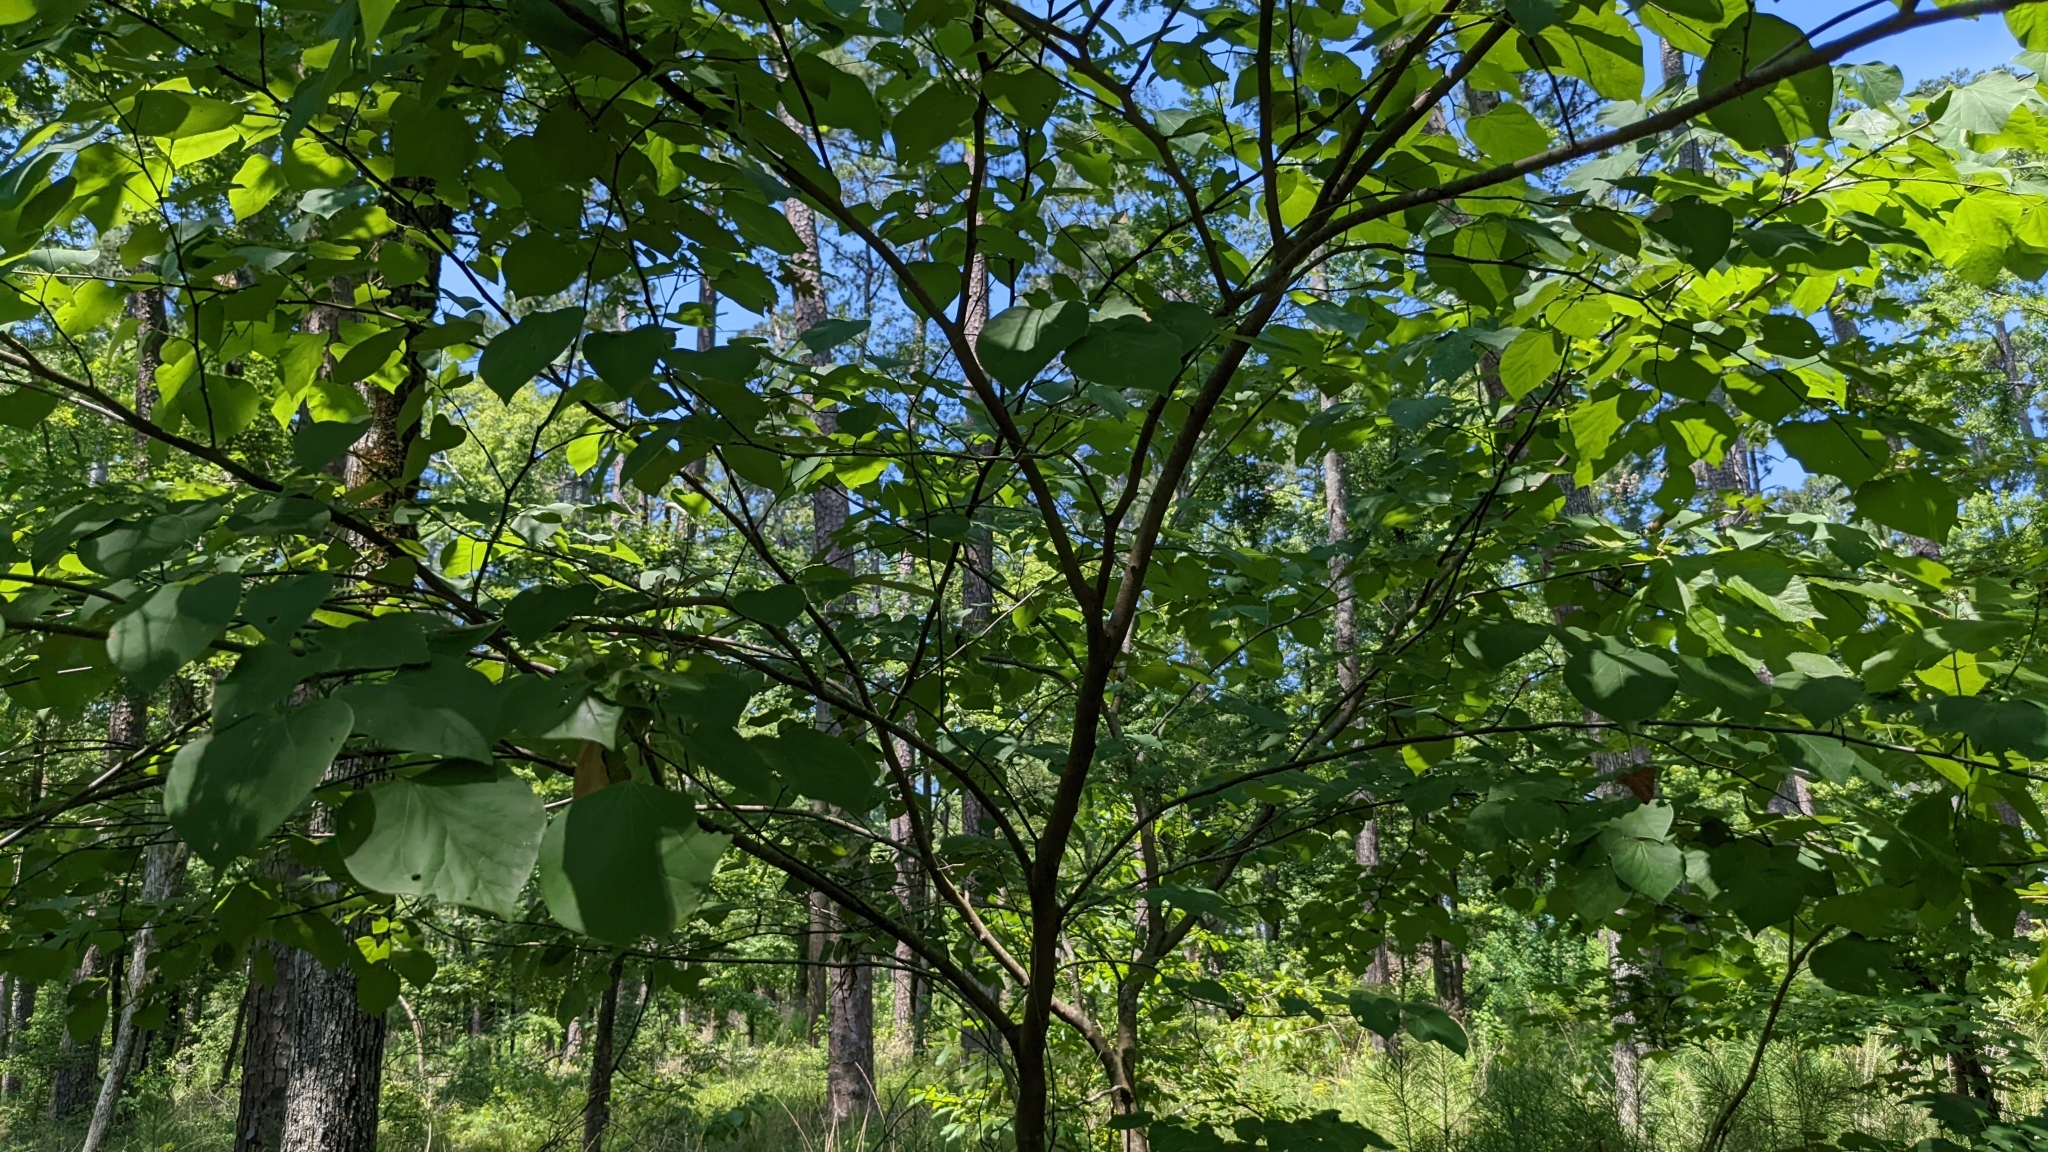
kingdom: Plantae
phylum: Tracheophyta
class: Magnoliopsida
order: Fabales
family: Fabaceae
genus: Cercis
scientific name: Cercis canadensis
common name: Eastern redbud
